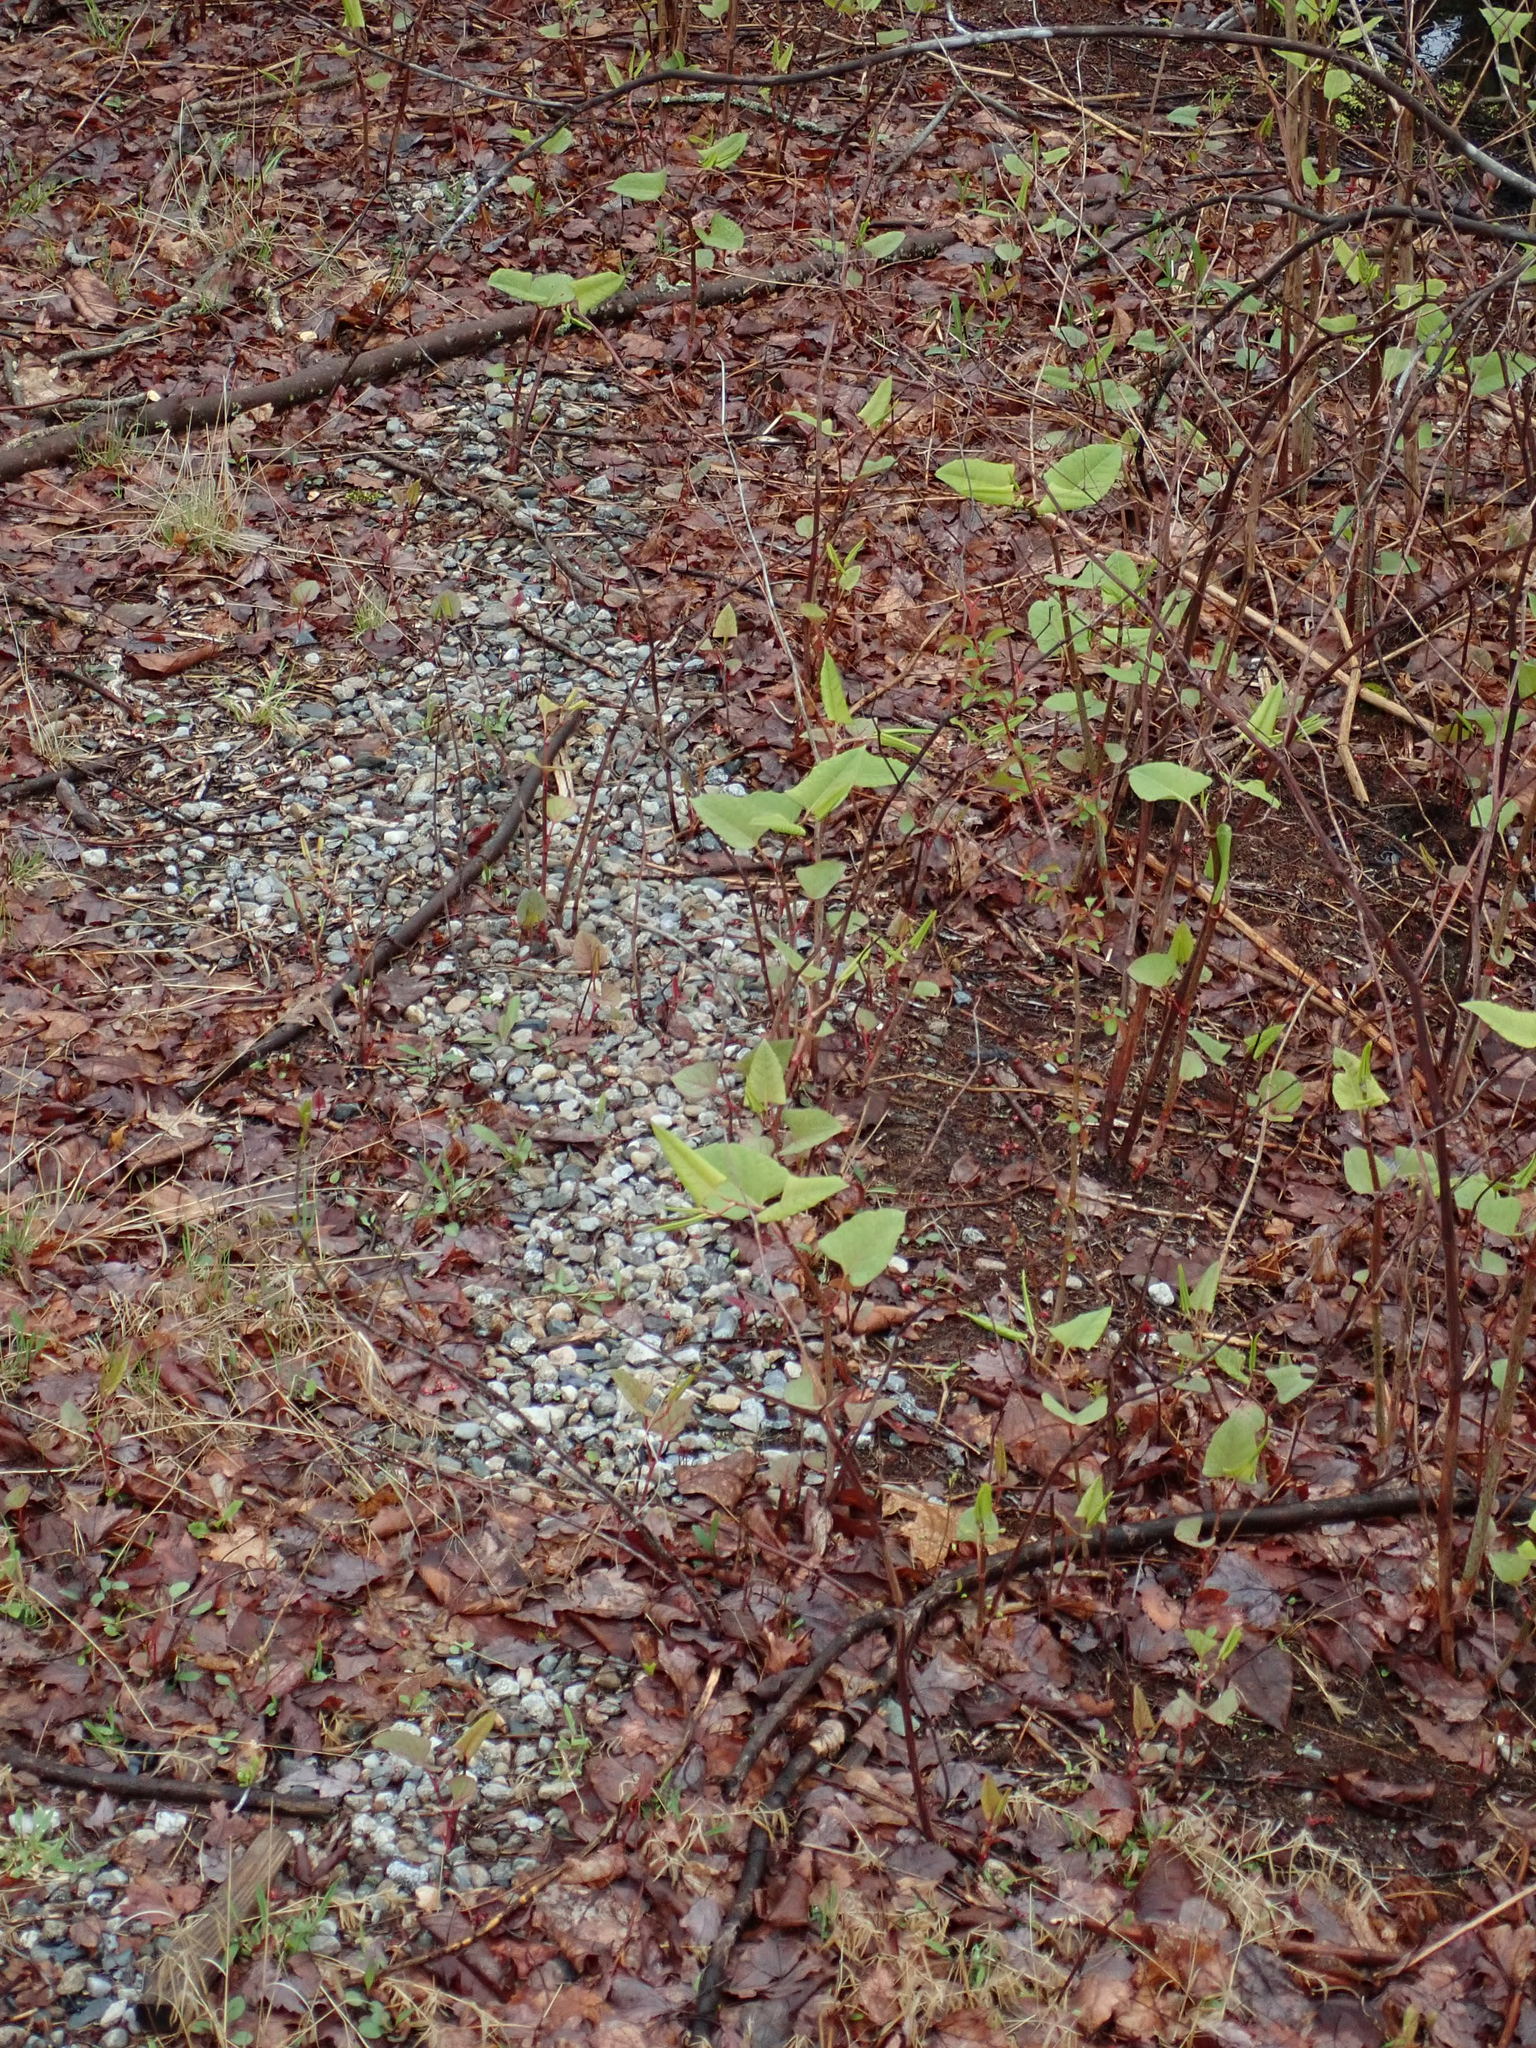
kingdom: Plantae
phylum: Tracheophyta
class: Magnoliopsida
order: Caryophyllales
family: Polygonaceae
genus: Reynoutria
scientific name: Reynoutria japonica
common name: Japanese knotweed
